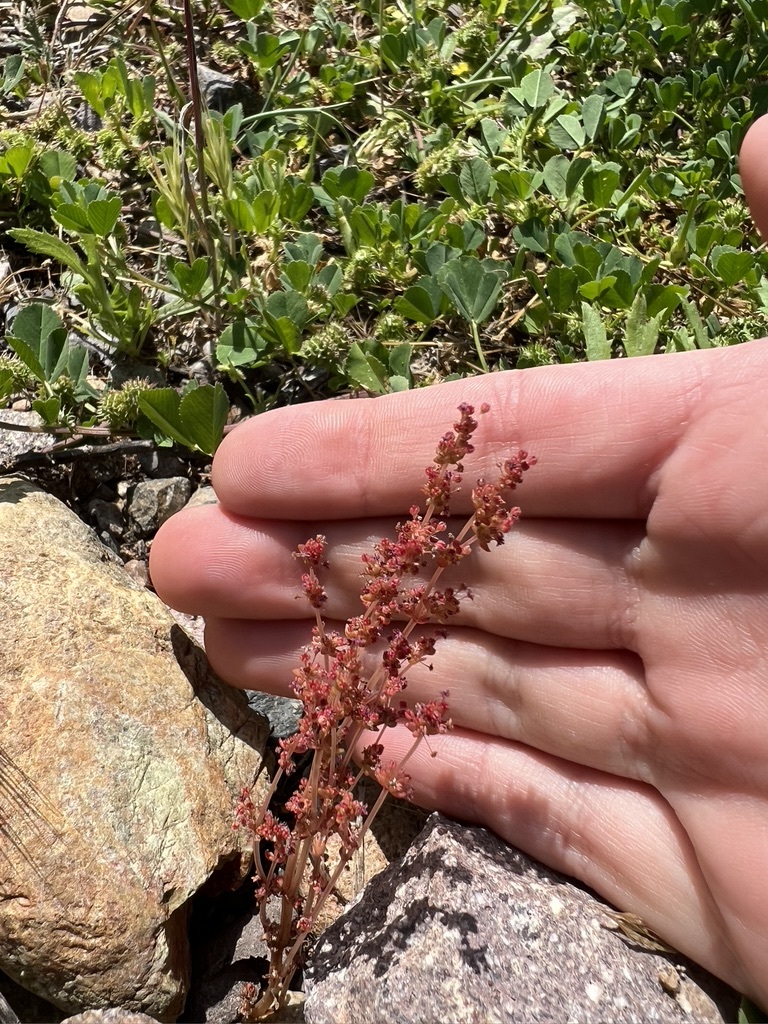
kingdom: Plantae
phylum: Tracheophyta
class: Magnoliopsida
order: Saxifragales
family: Crassulaceae
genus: Crassula
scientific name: Crassula connata
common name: Erect pygmyweed
